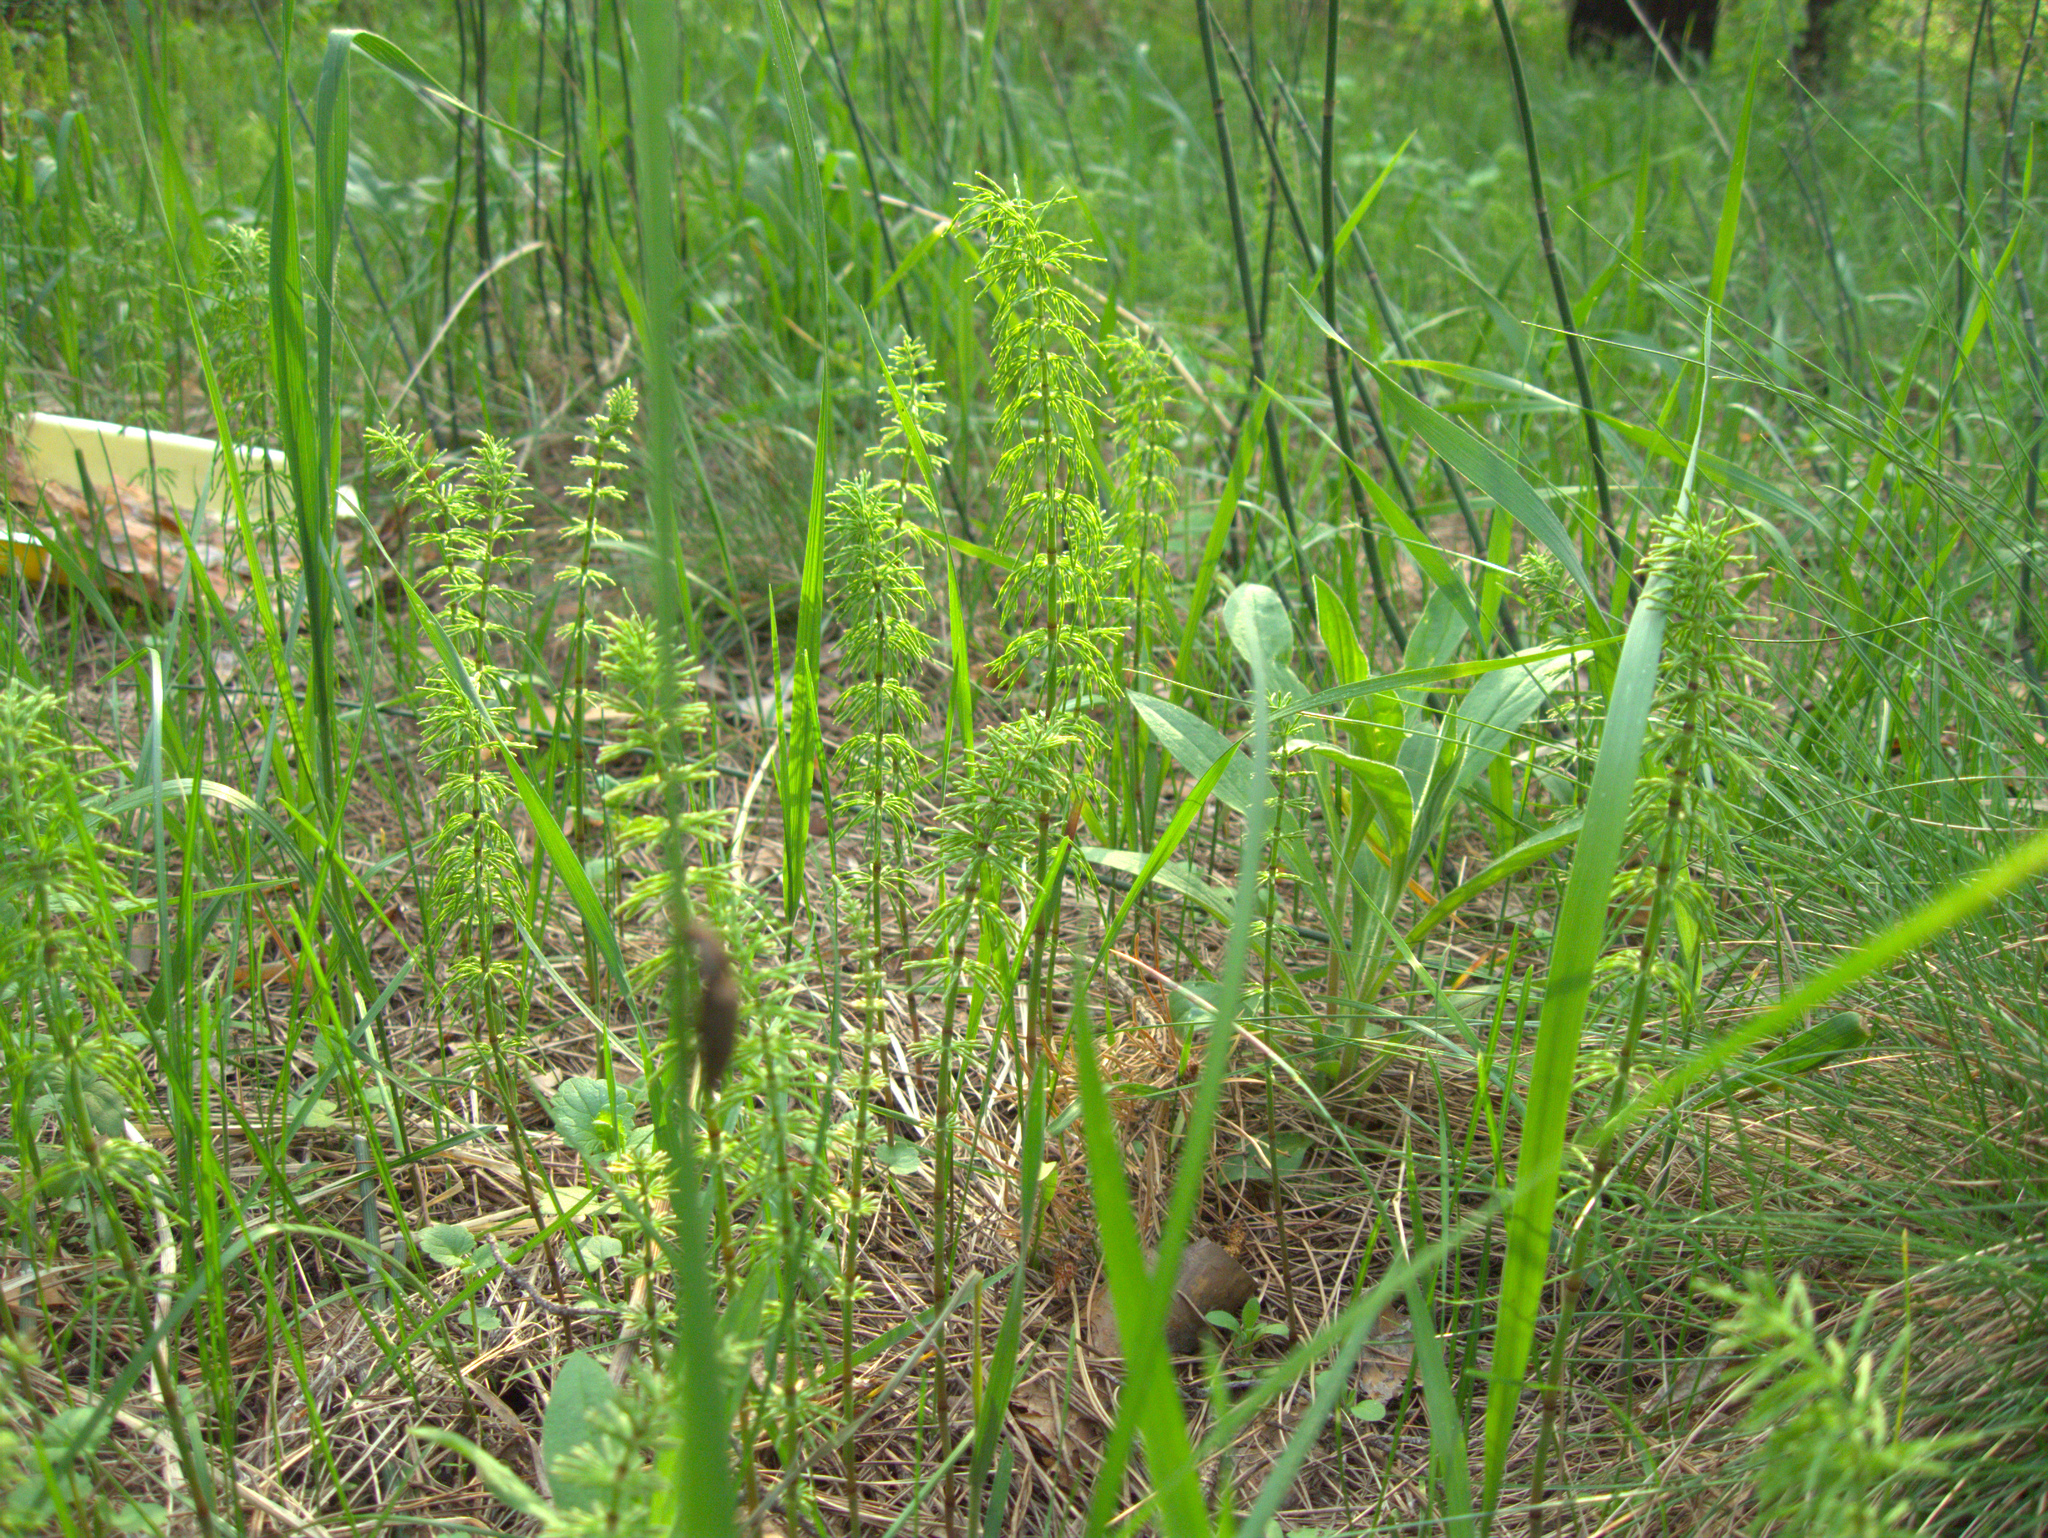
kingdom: Plantae
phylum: Tracheophyta
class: Polypodiopsida
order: Equisetales
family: Equisetaceae
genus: Equisetum
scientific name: Equisetum pratense
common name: Meadow horsetail
